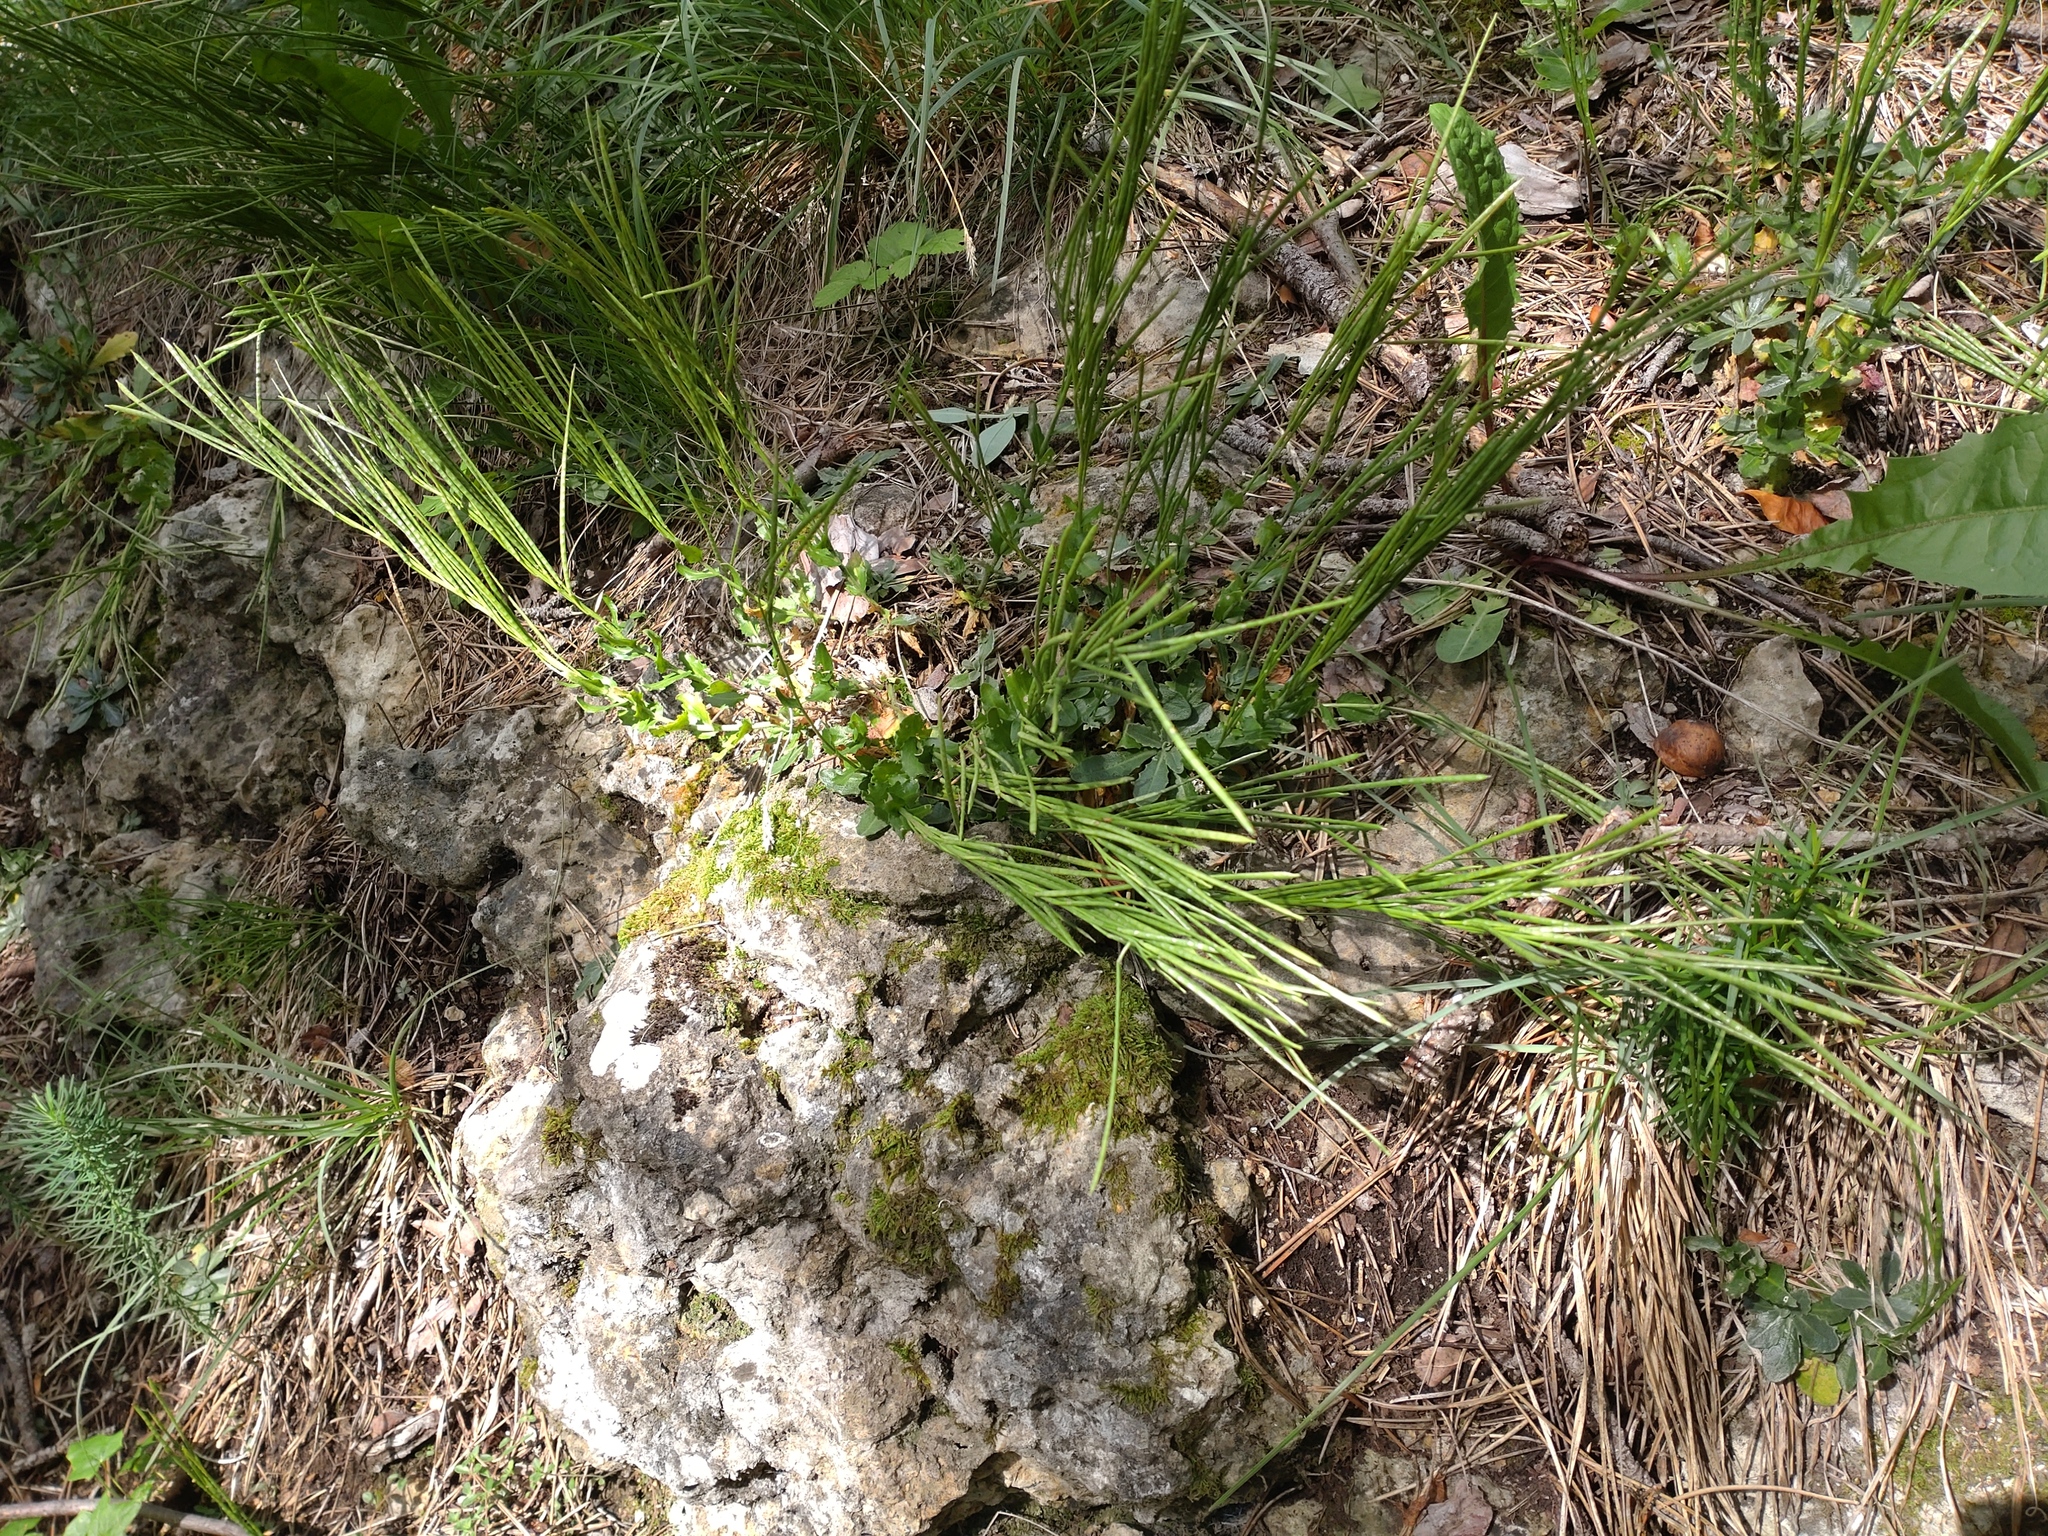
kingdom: Plantae
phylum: Tracheophyta
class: Magnoliopsida
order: Brassicales
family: Brassicaceae
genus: Arabis
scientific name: Arabis collina
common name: Rosy cress
